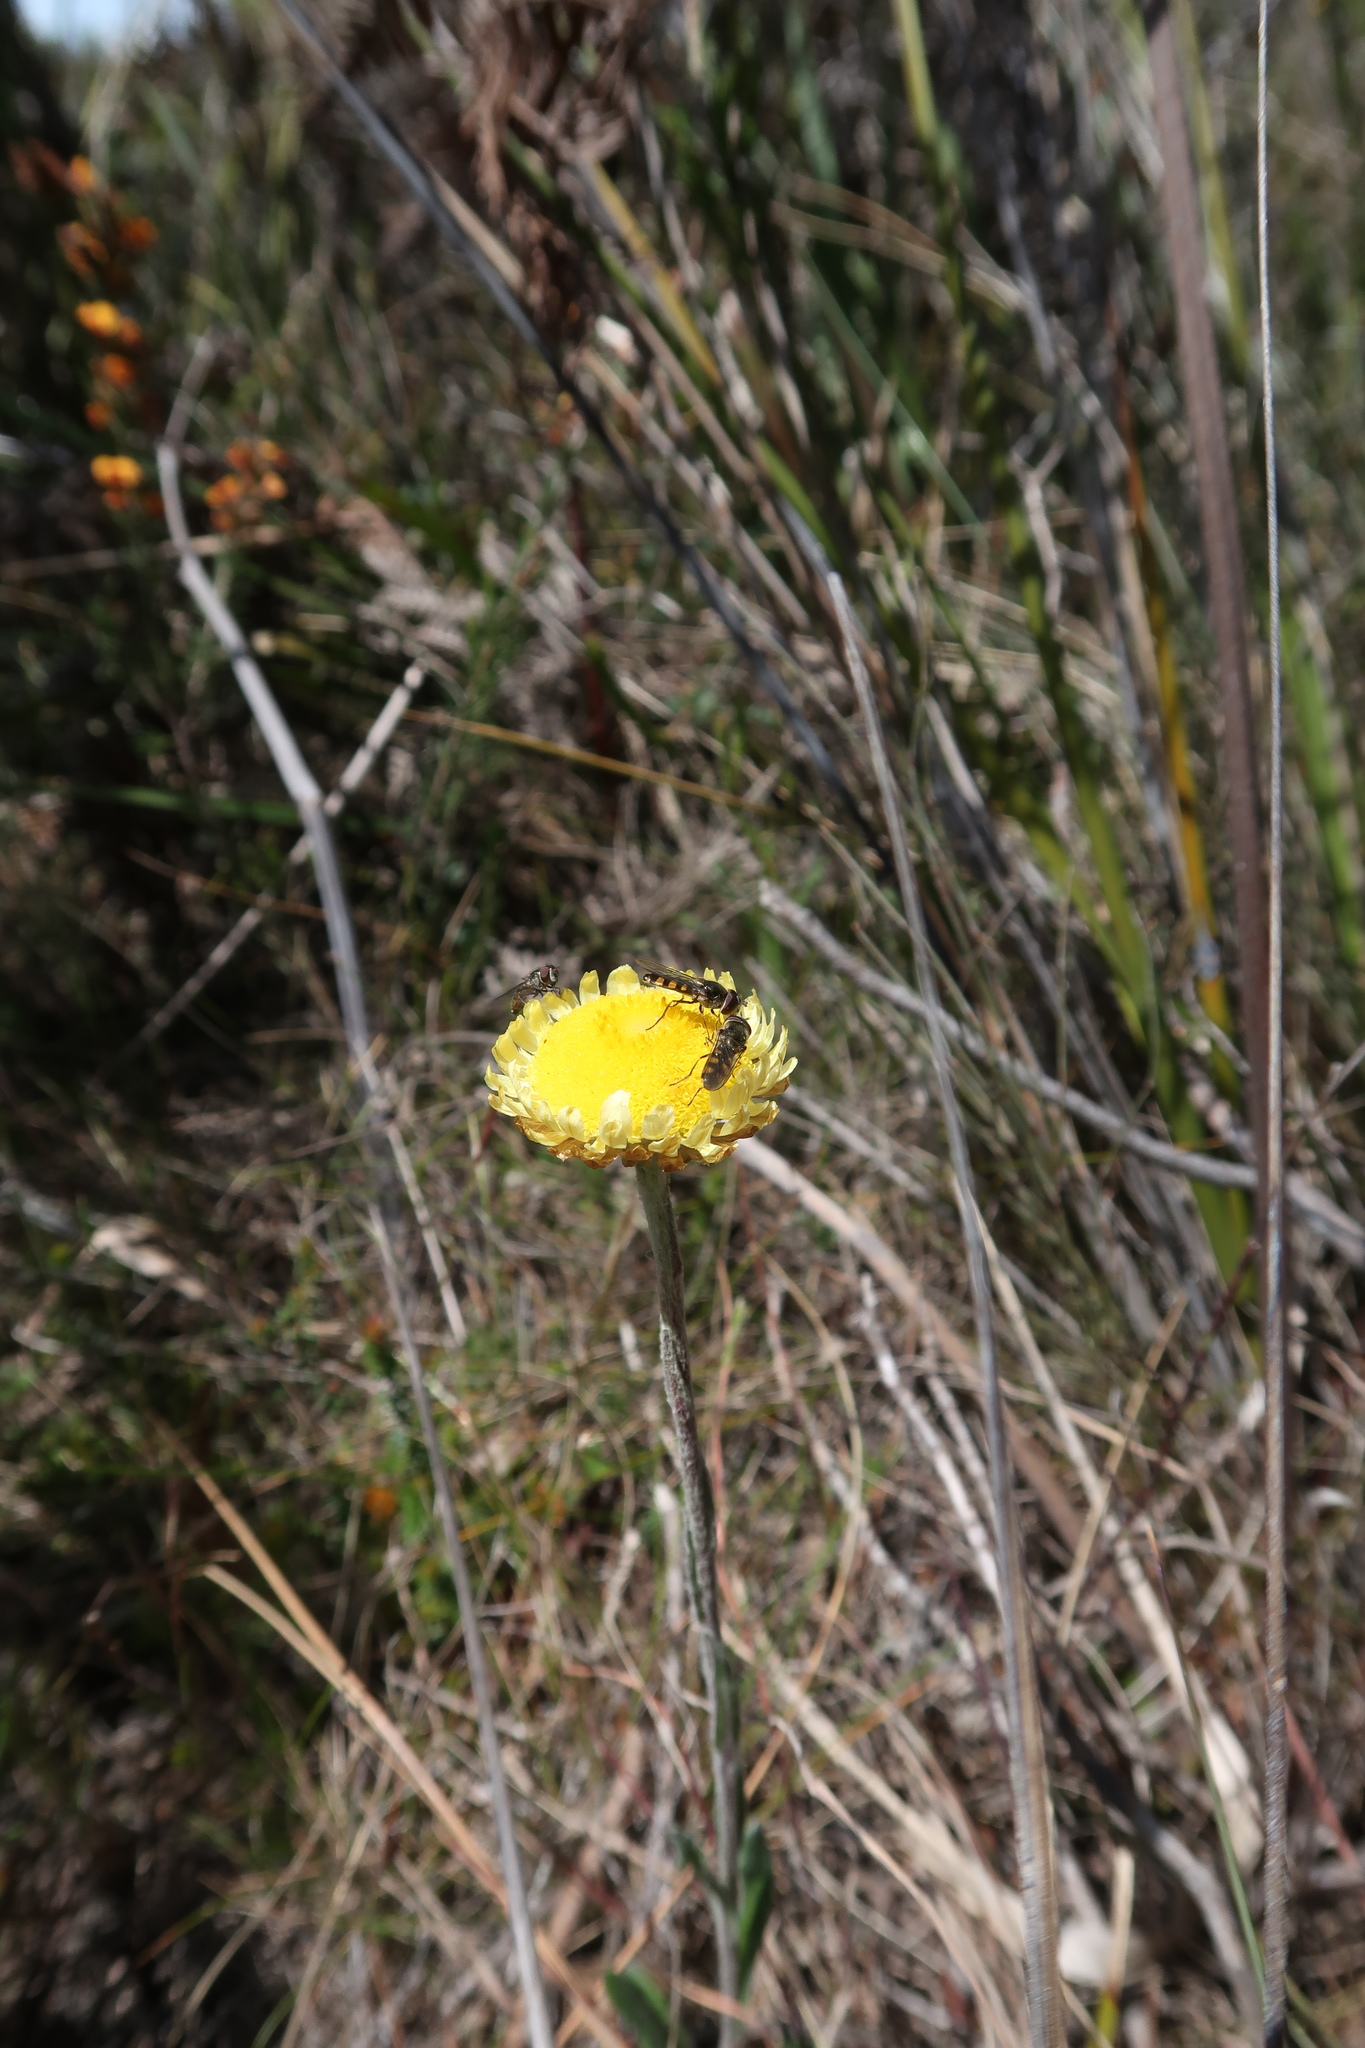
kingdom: Plantae
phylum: Tracheophyta
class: Magnoliopsida
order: Asterales
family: Asteraceae
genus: Coronidium
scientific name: Coronidium scorpioides
